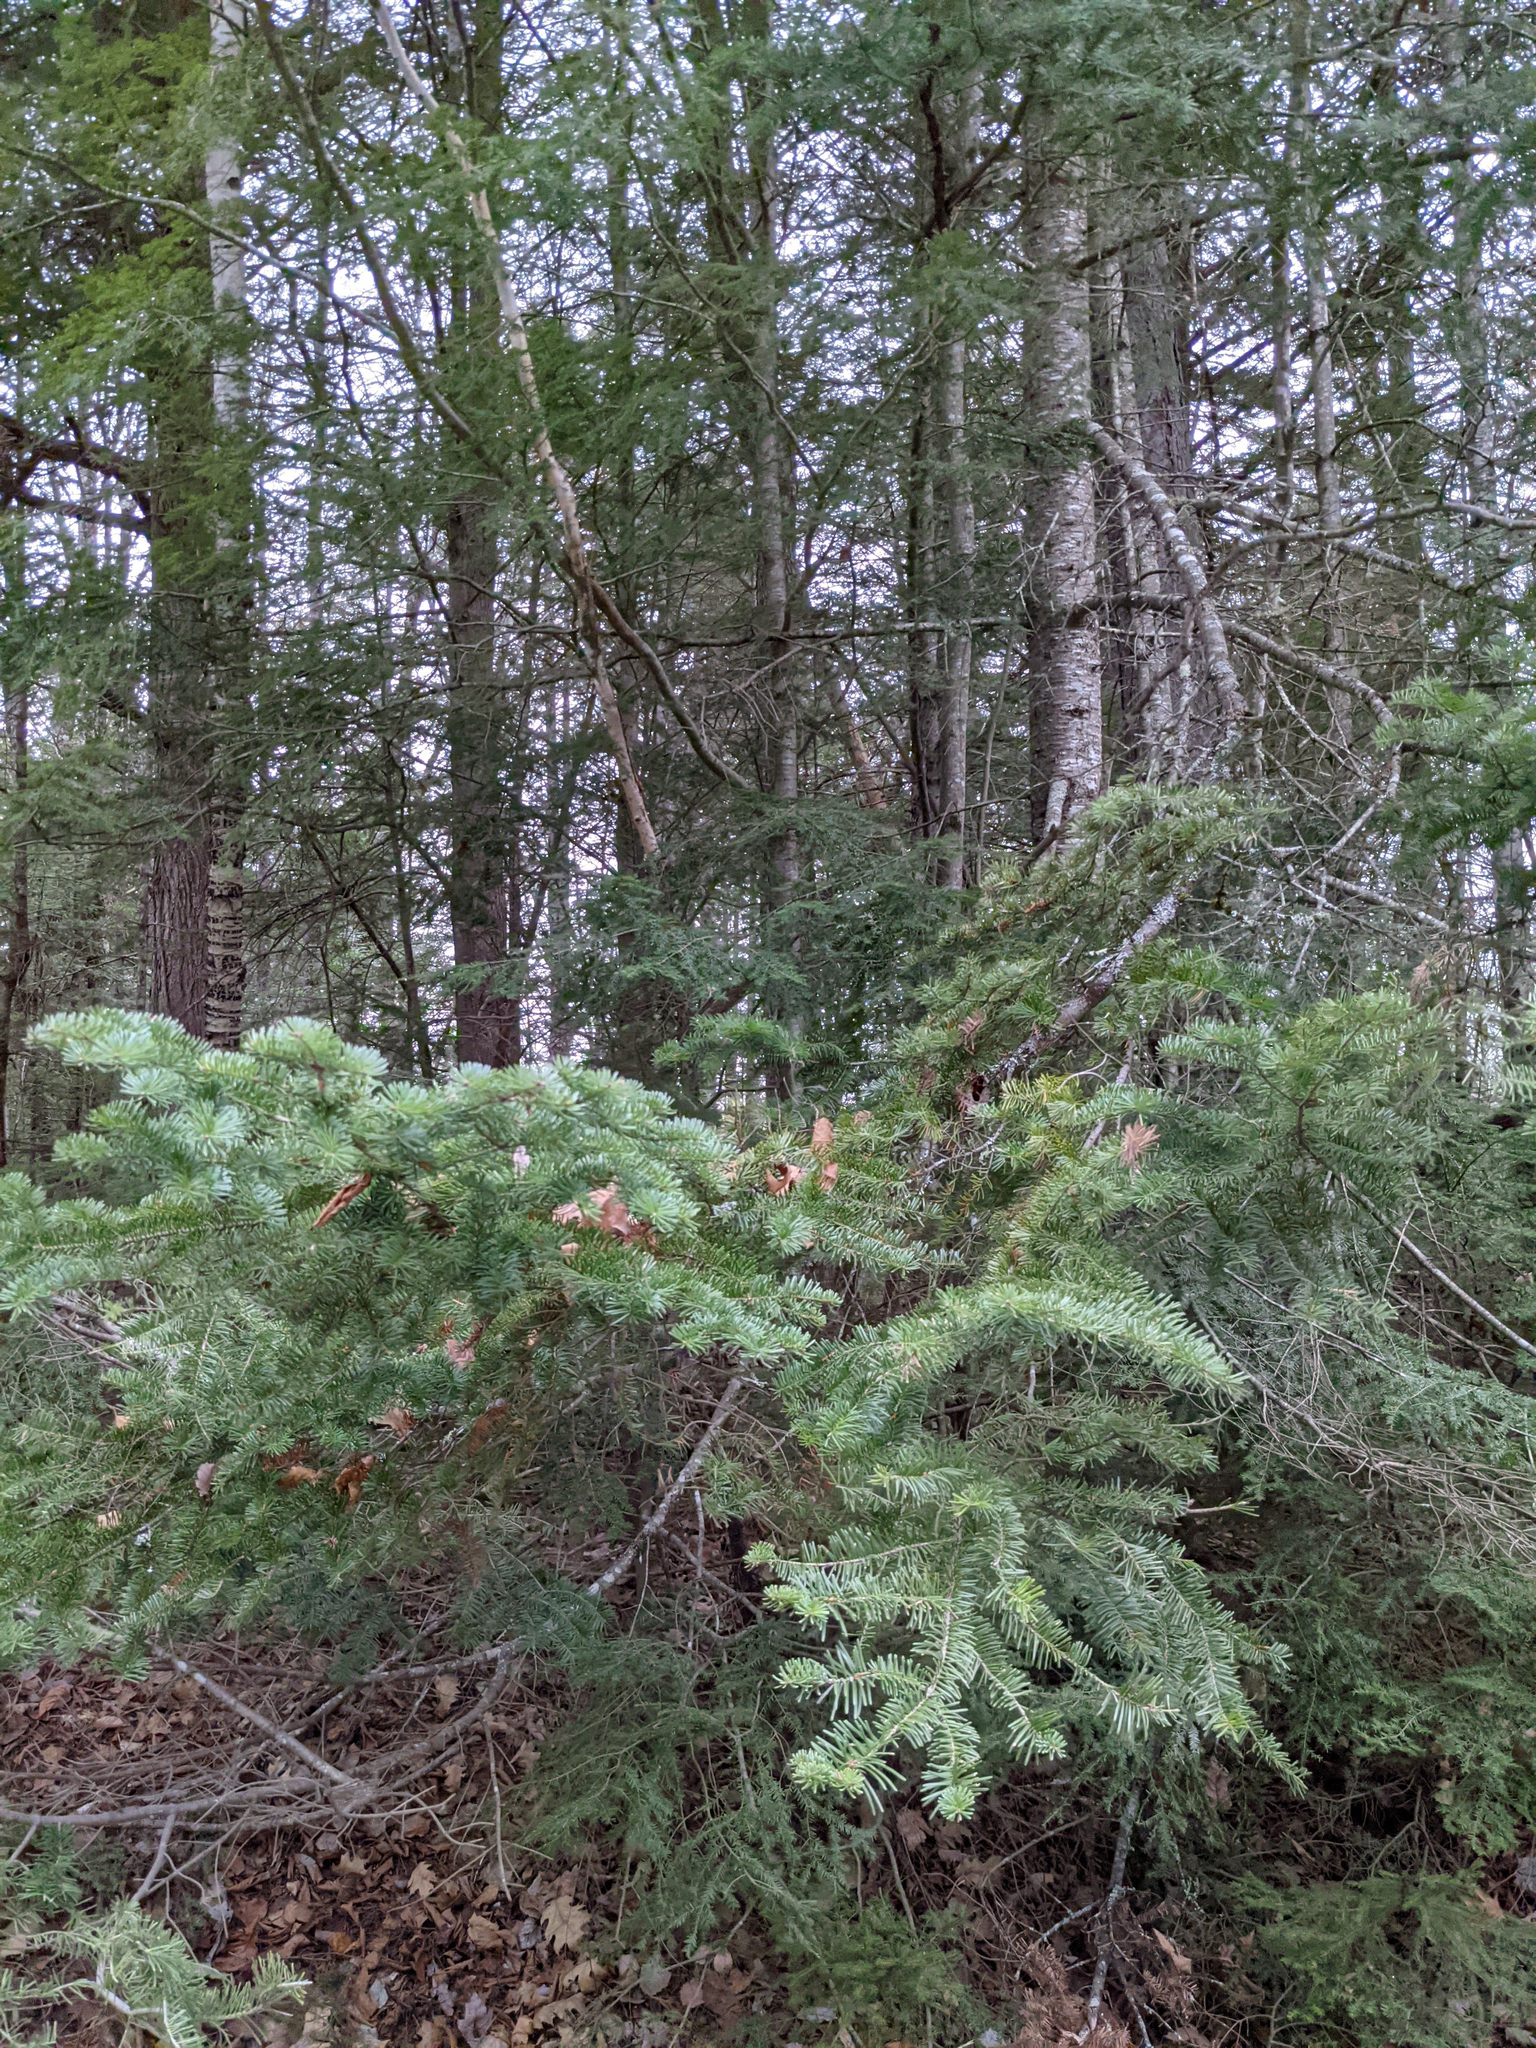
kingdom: Plantae
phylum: Tracheophyta
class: Pinopsida
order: Pinales
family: Pinaceae
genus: Abies
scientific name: Abies balsamea
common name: Balsam fir
